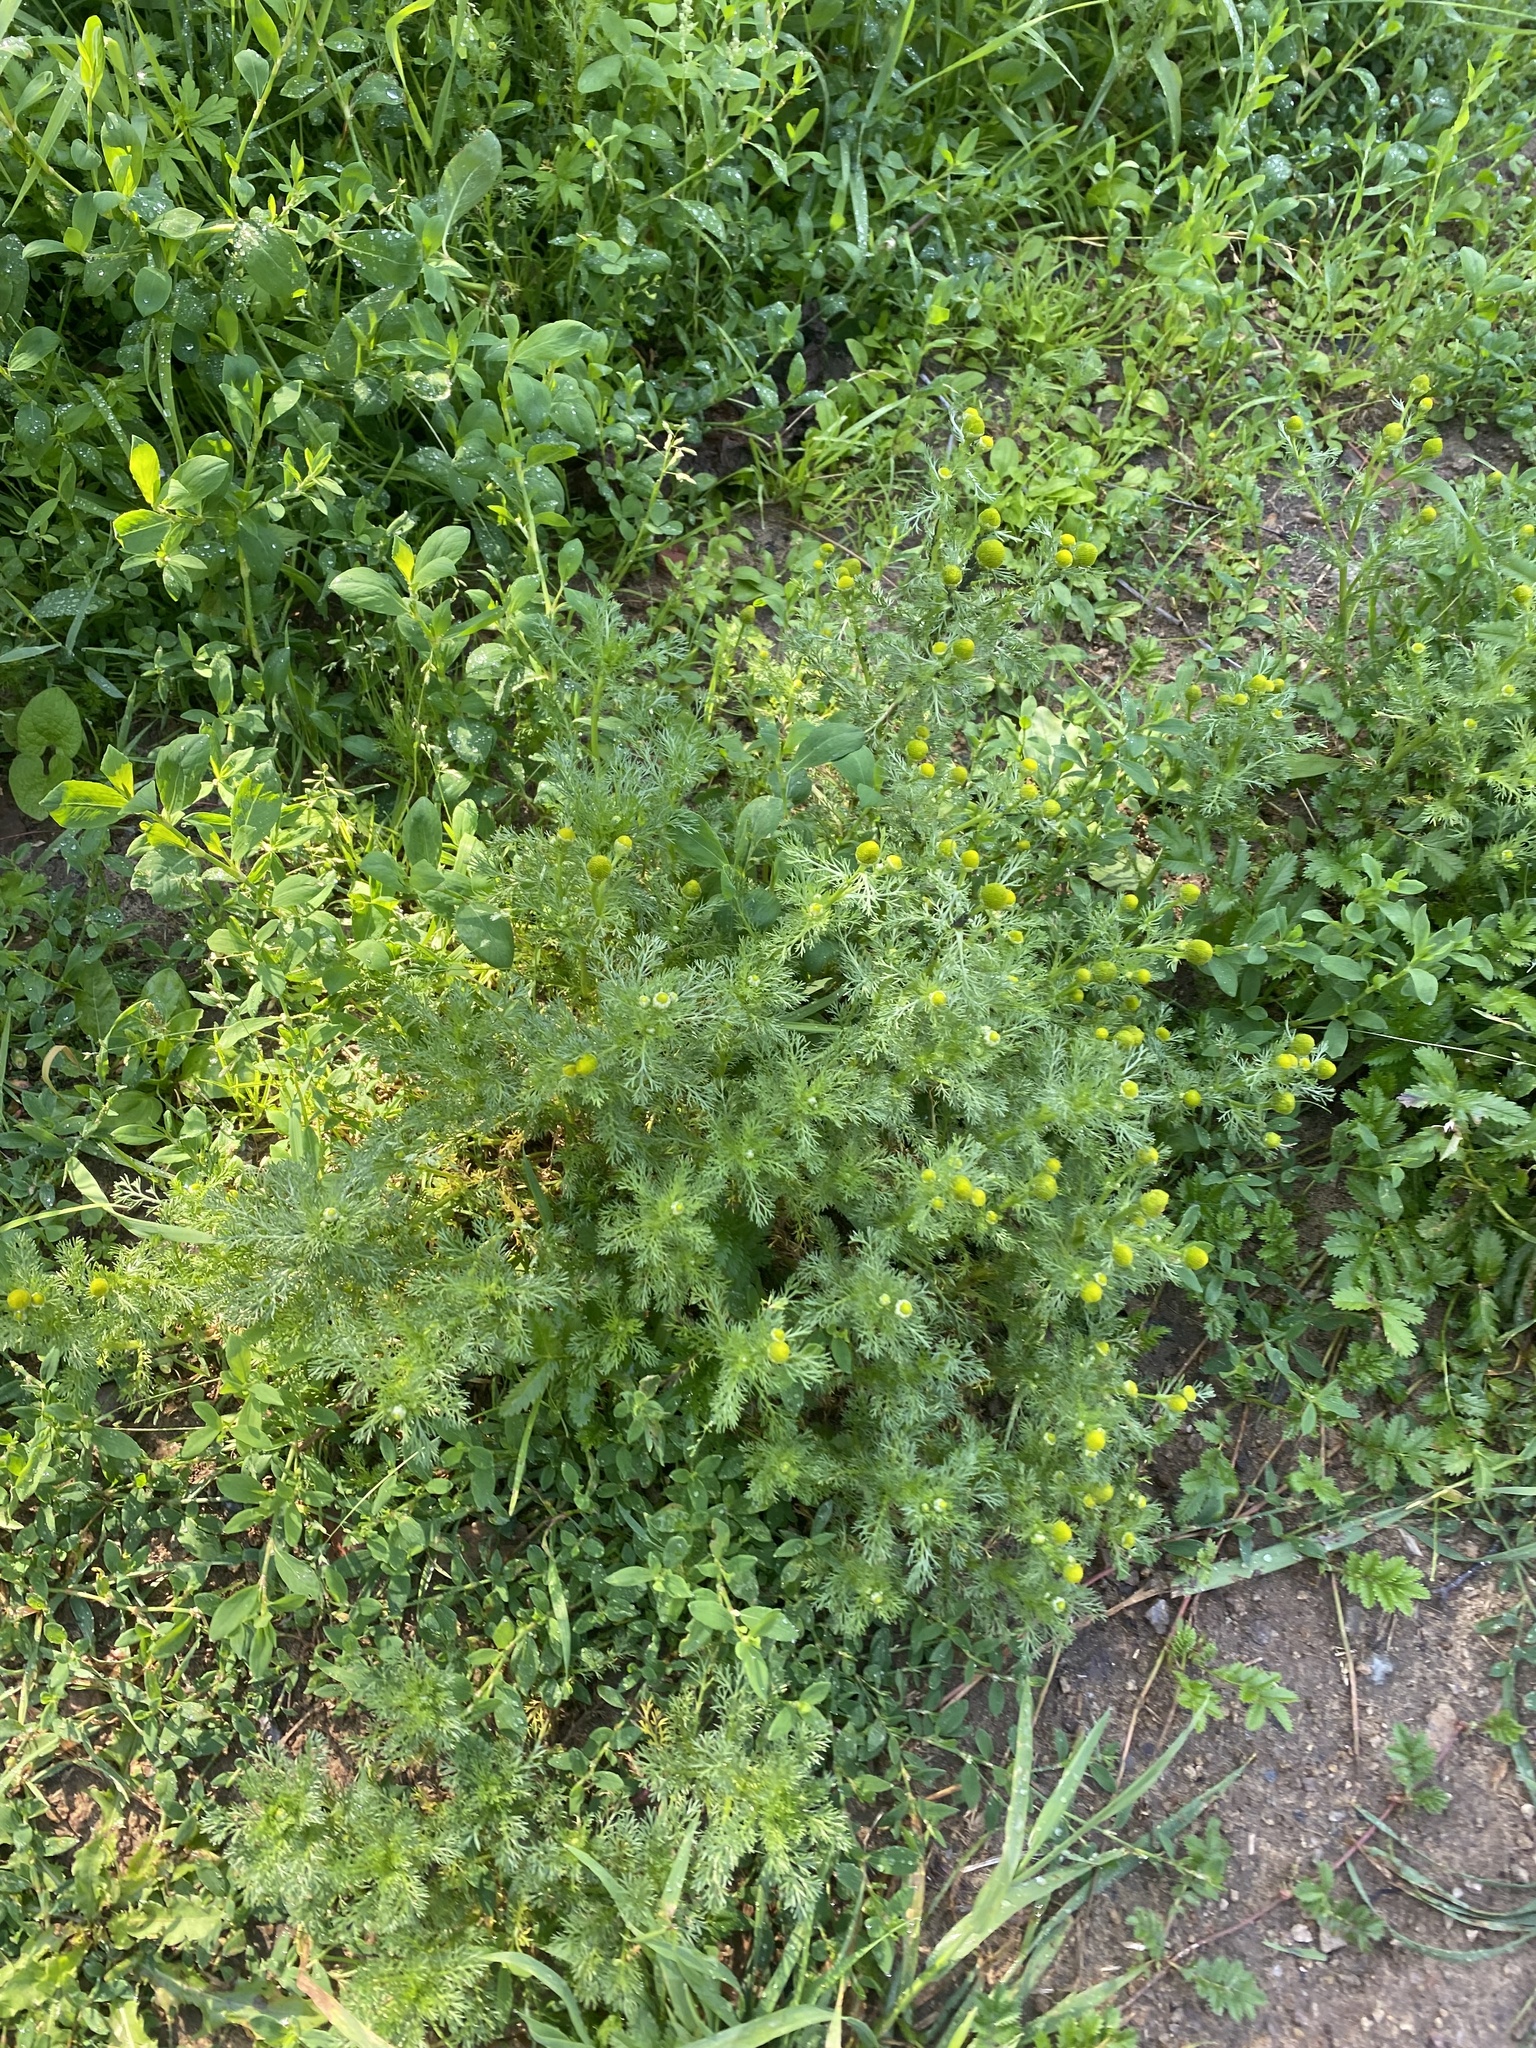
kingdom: Plantae
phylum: Tracheophyta
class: Magnoliopsida
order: Asterales
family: Asteraceae
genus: Matricaria
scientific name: Matricaria discoidea
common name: Disc mayweed
